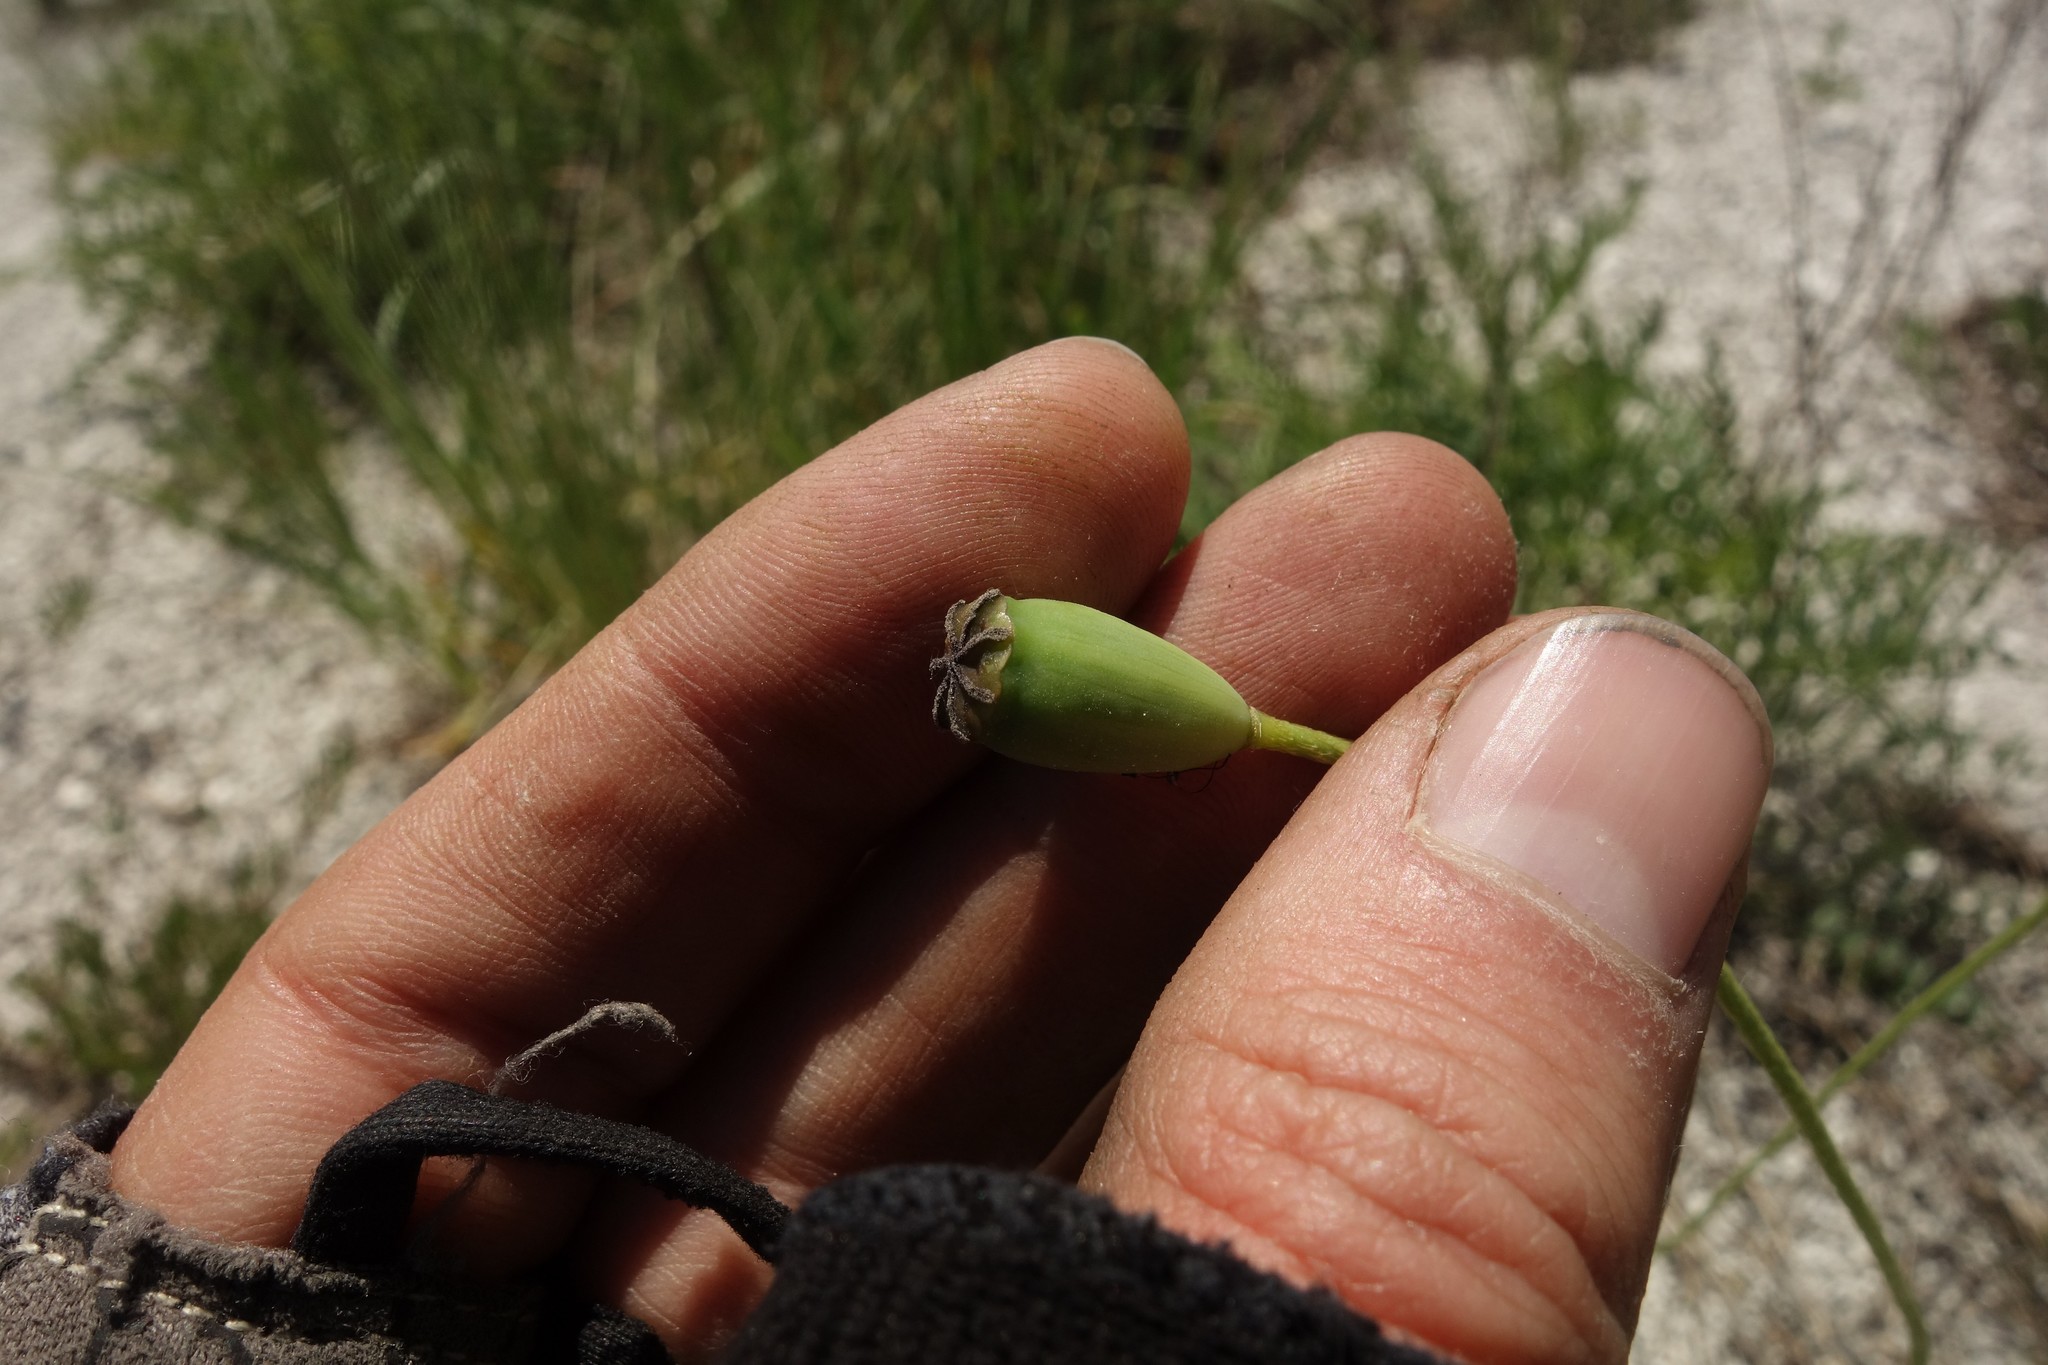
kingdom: Plantae
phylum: Tracheophyta
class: Magnoliopsida
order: Ranunculales
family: Papaveraceae
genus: Papaver
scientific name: Papaver dubium
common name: Long-headed poppy
